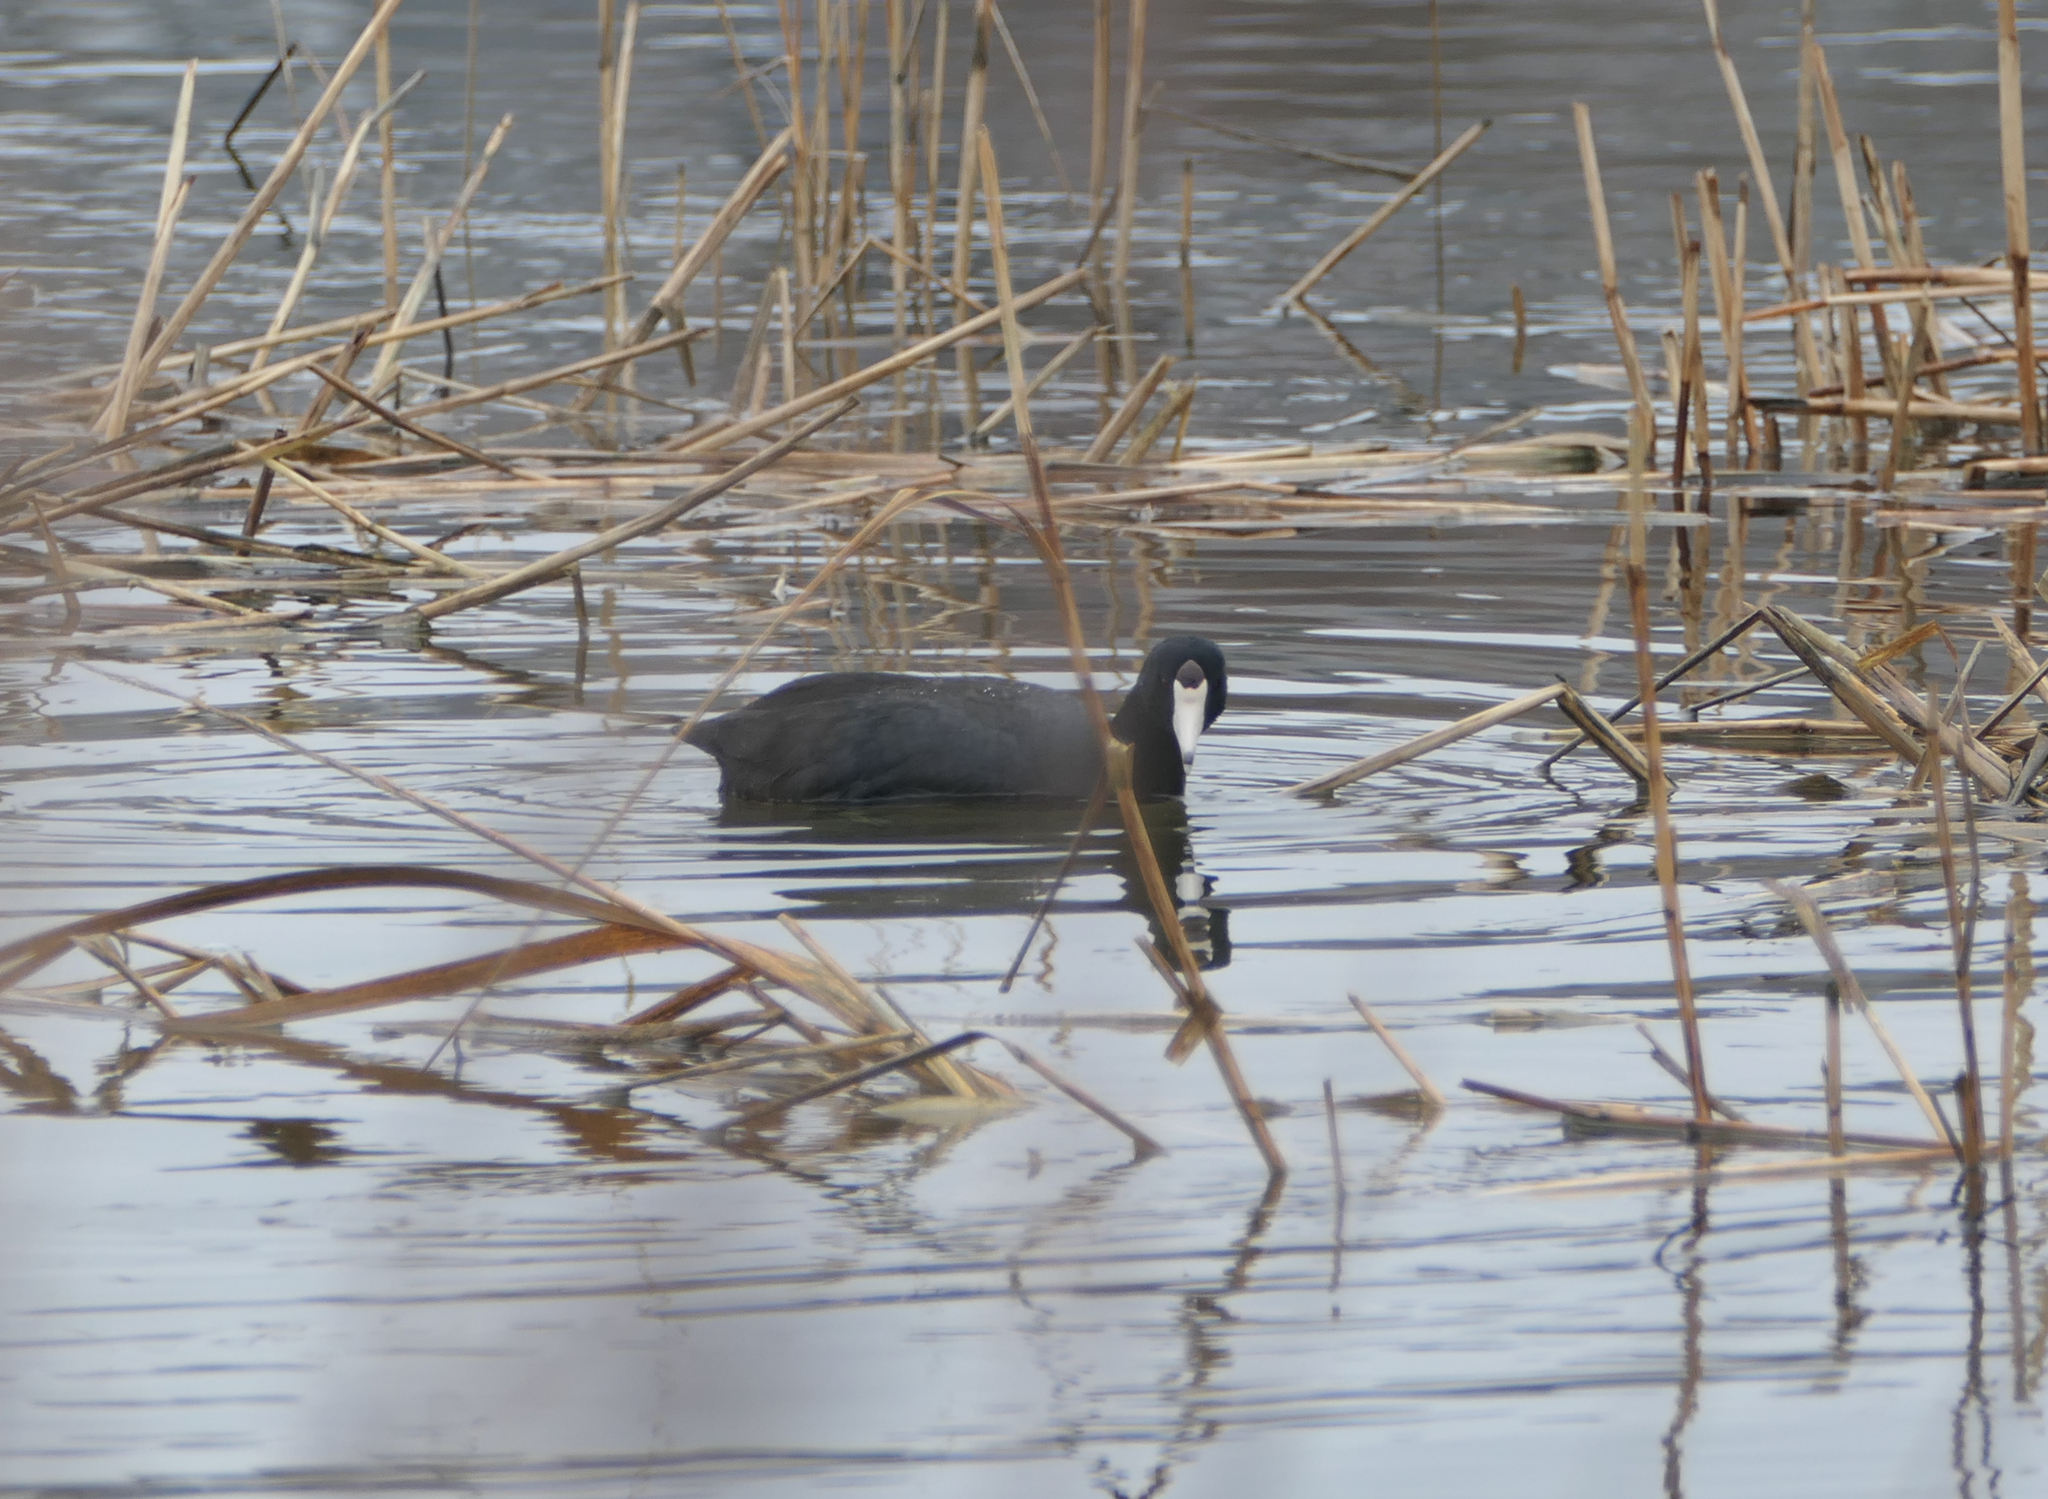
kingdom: Animalia
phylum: Chordata
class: Aves
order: Gruiformes
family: Rallidae
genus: Fulica
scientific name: Fulica americana
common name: American coot
